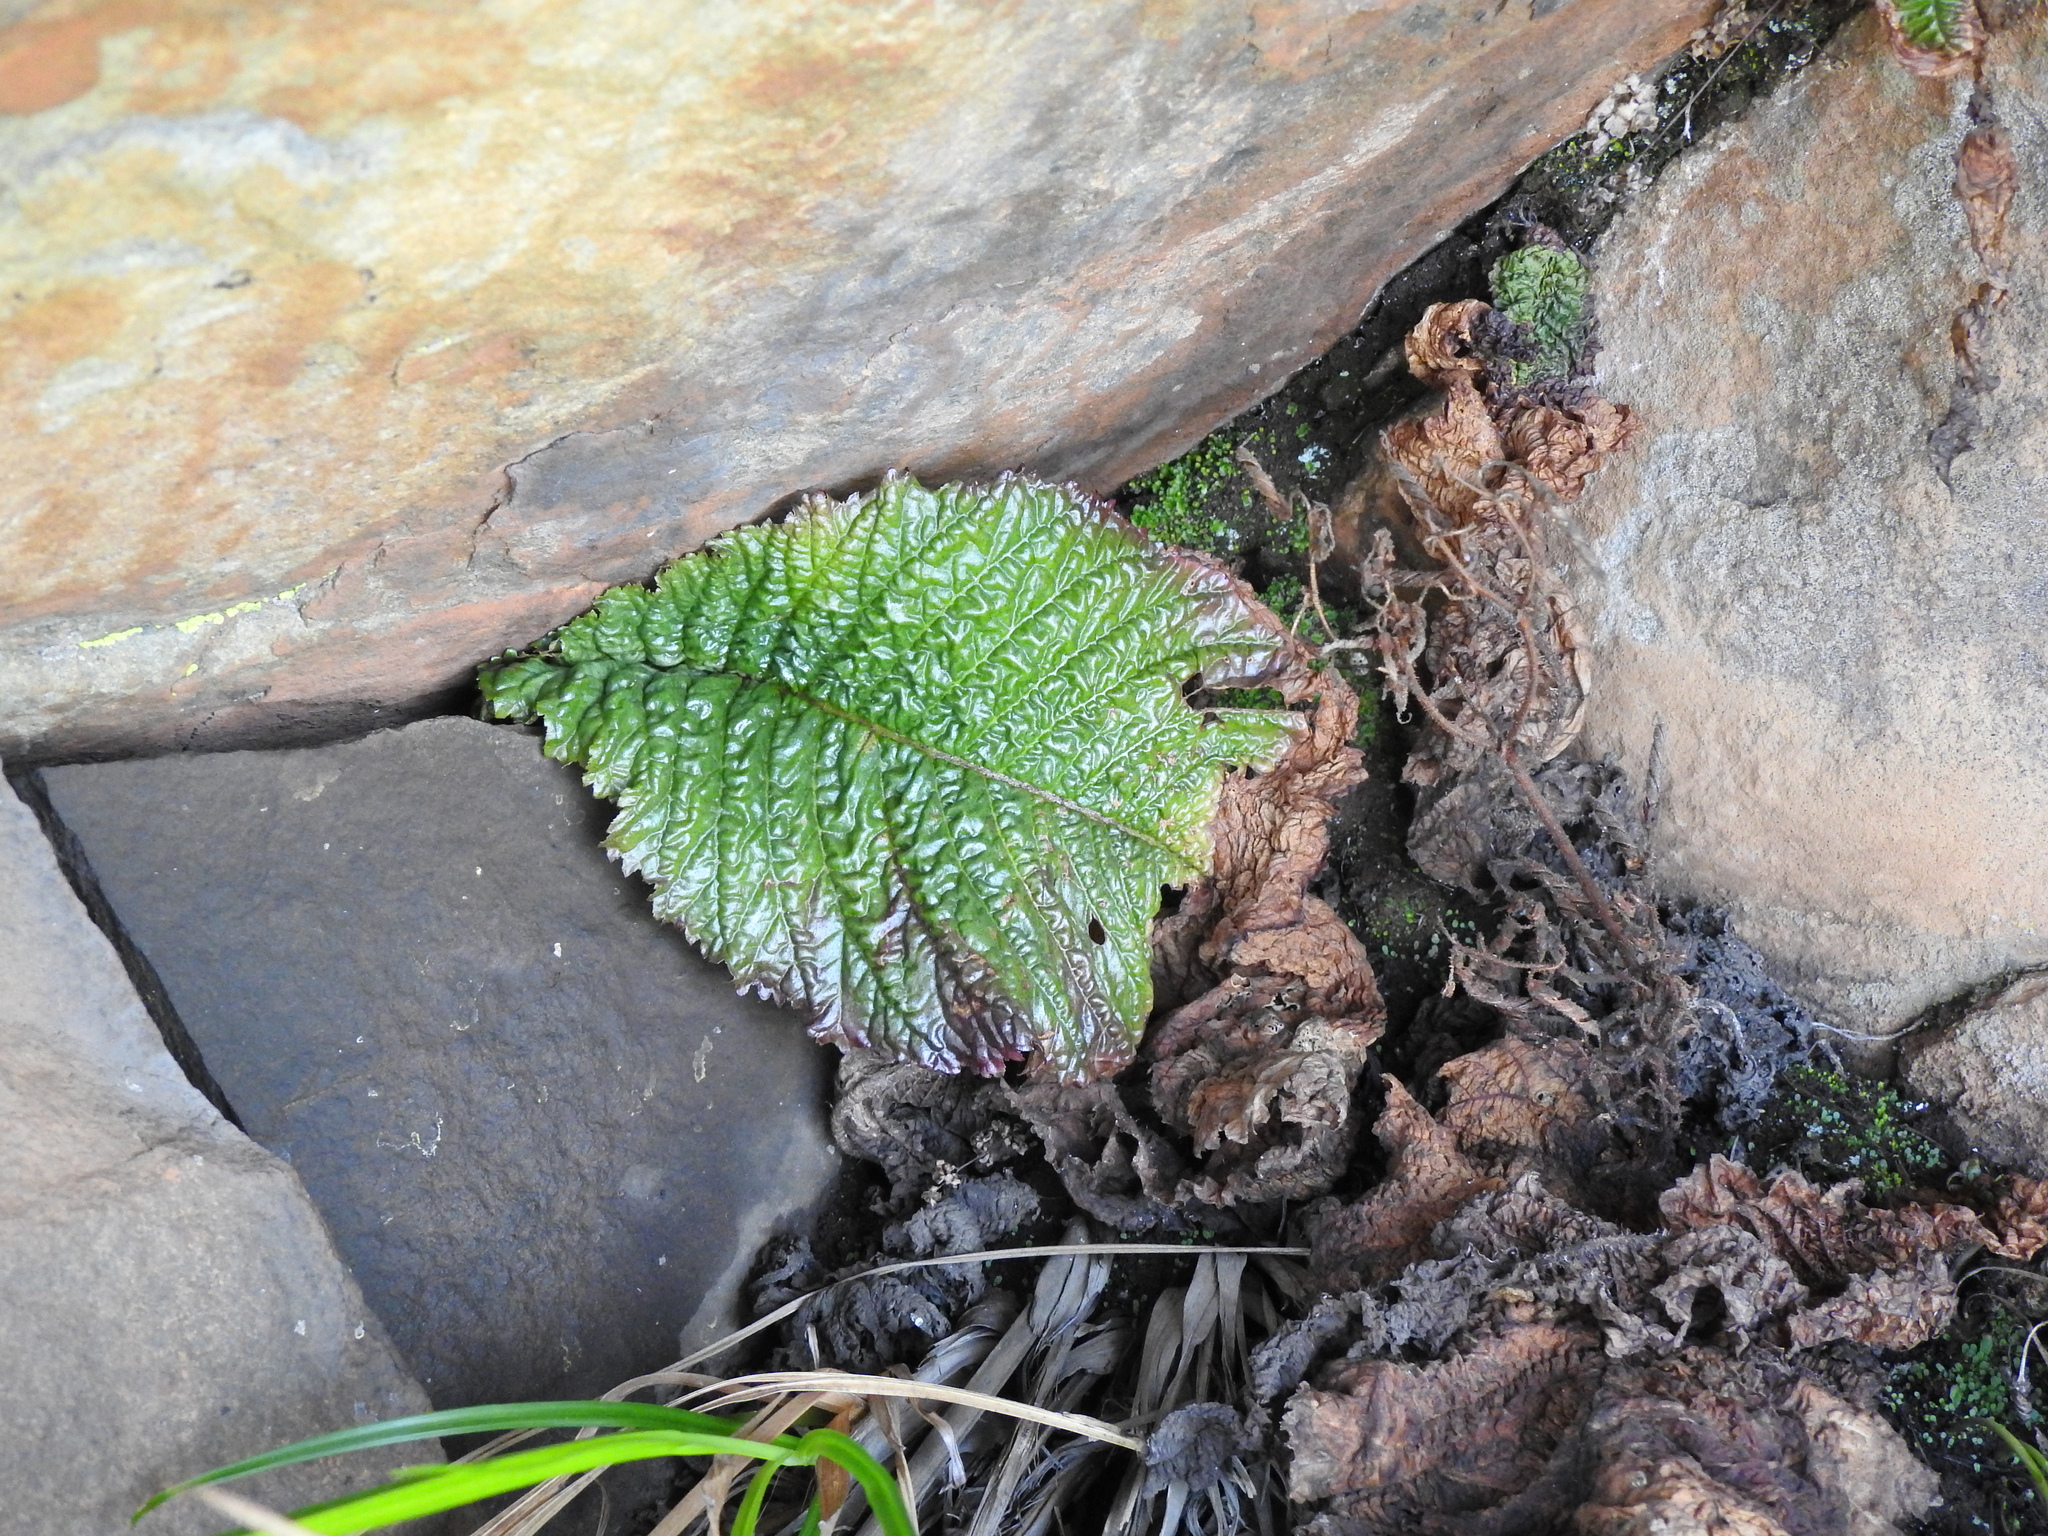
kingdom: Plantae
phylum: Tracheophyta
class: Magnoliopsida
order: Lamiales
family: Gesneriaceae
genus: Streptocarpus
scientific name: Streptocarpus denticulatus
